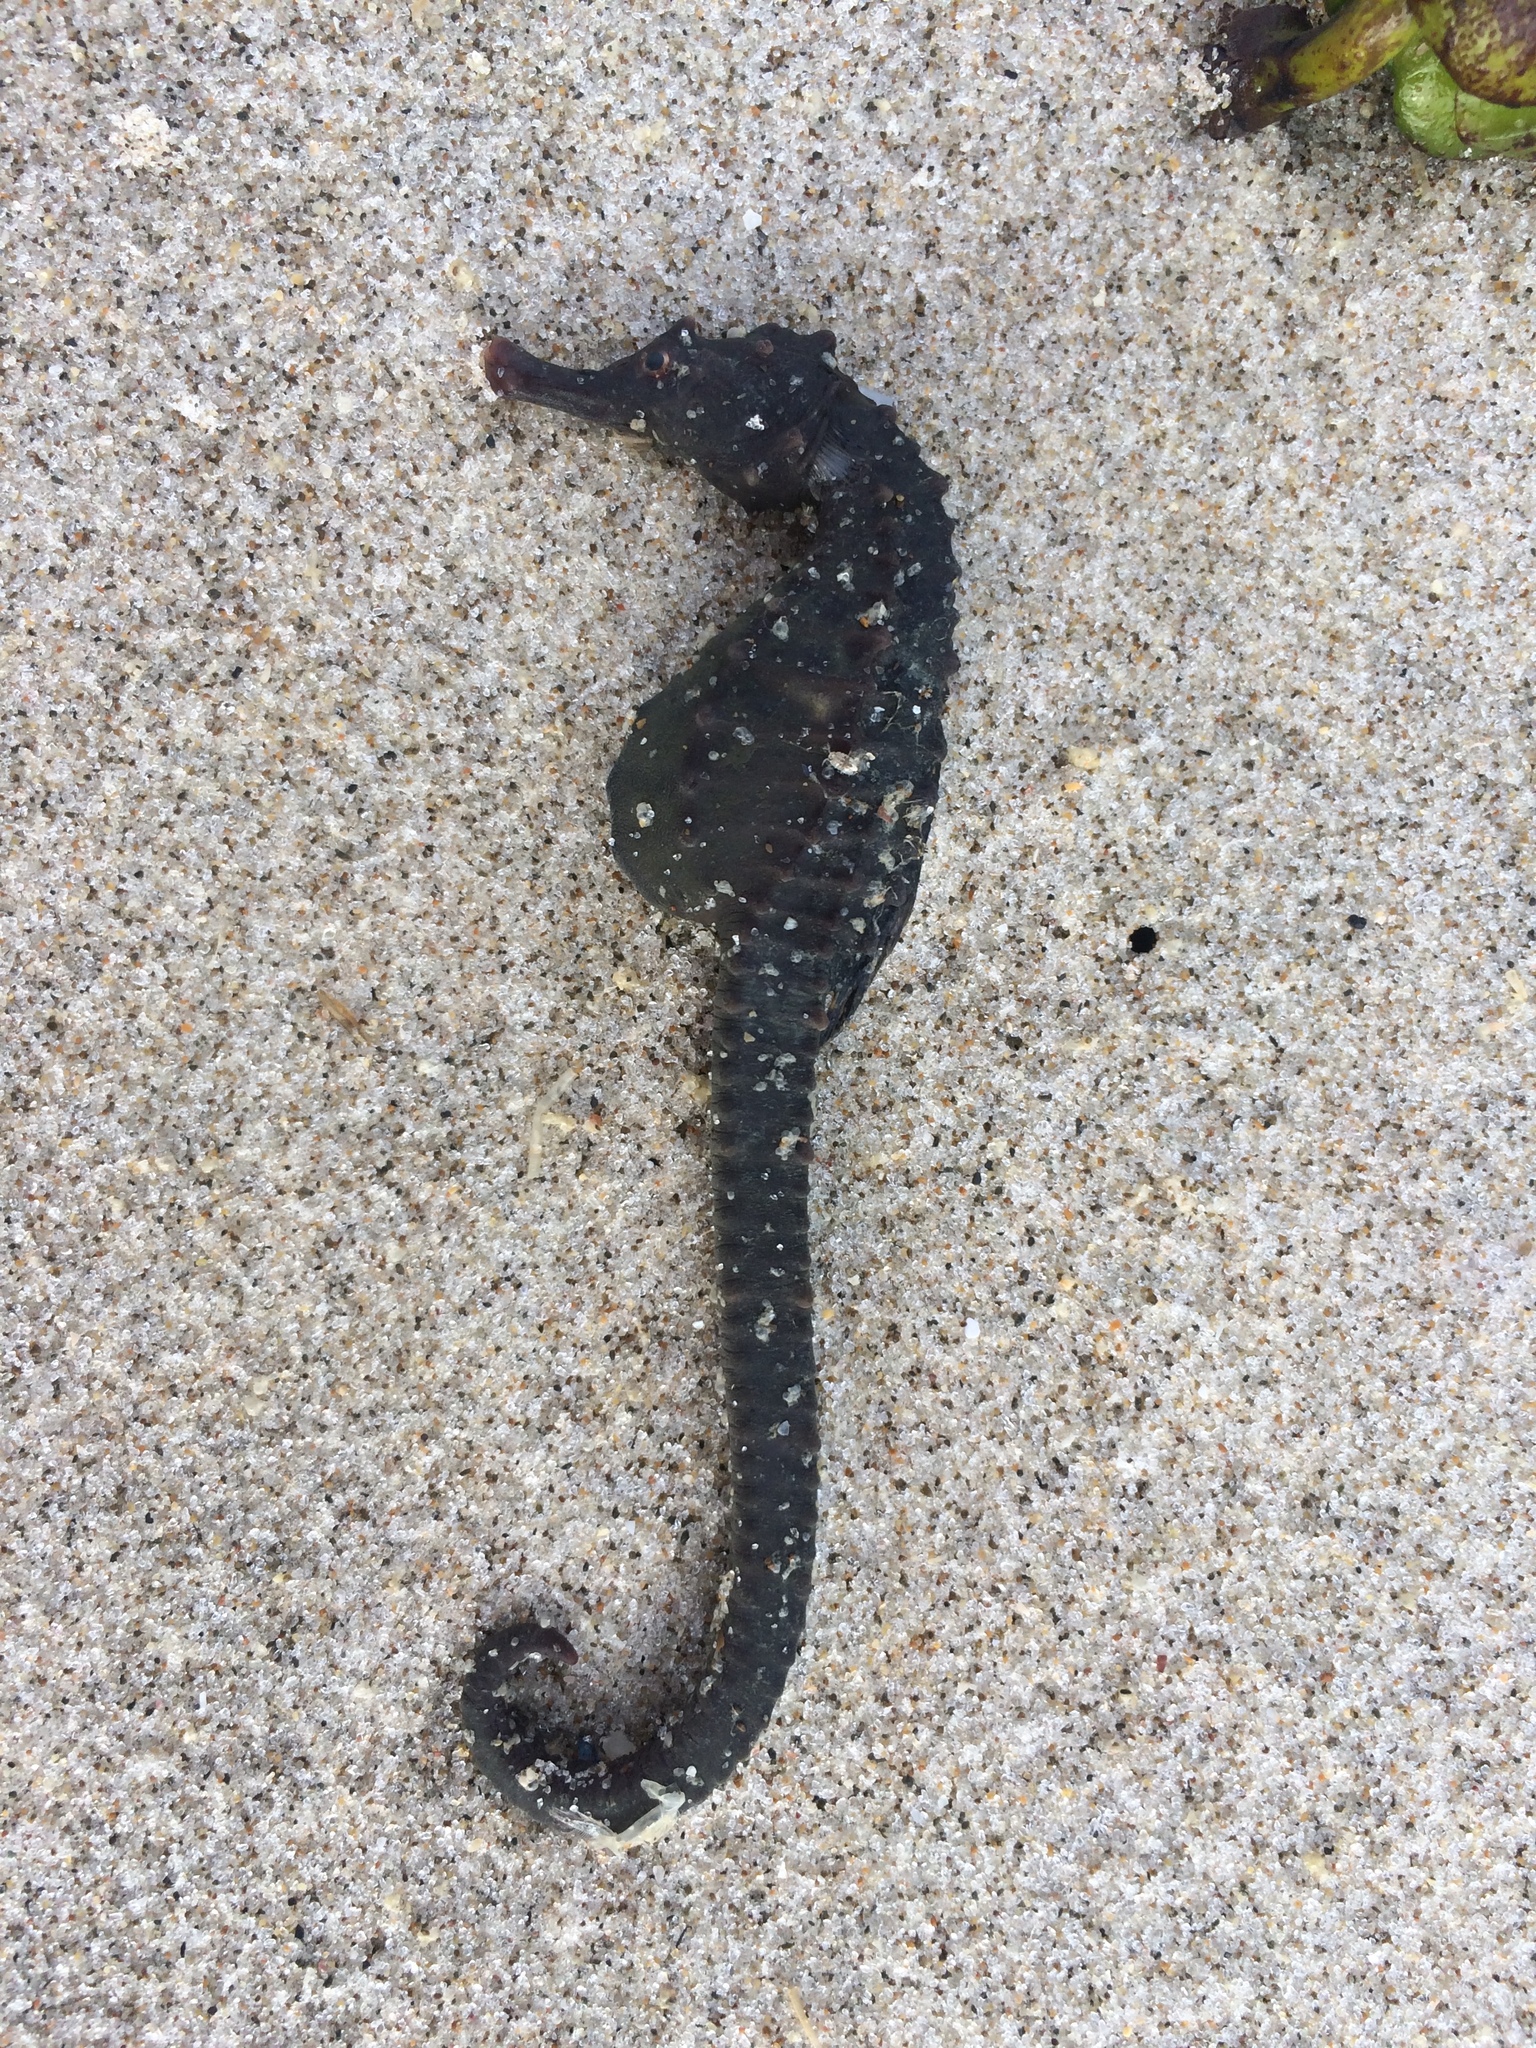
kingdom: Animalia
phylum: Chordata
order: Syngnathiformes
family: Syngnathidae
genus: Hippocampus
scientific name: Hippocampus abdominalis
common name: Big-belly seahorse
